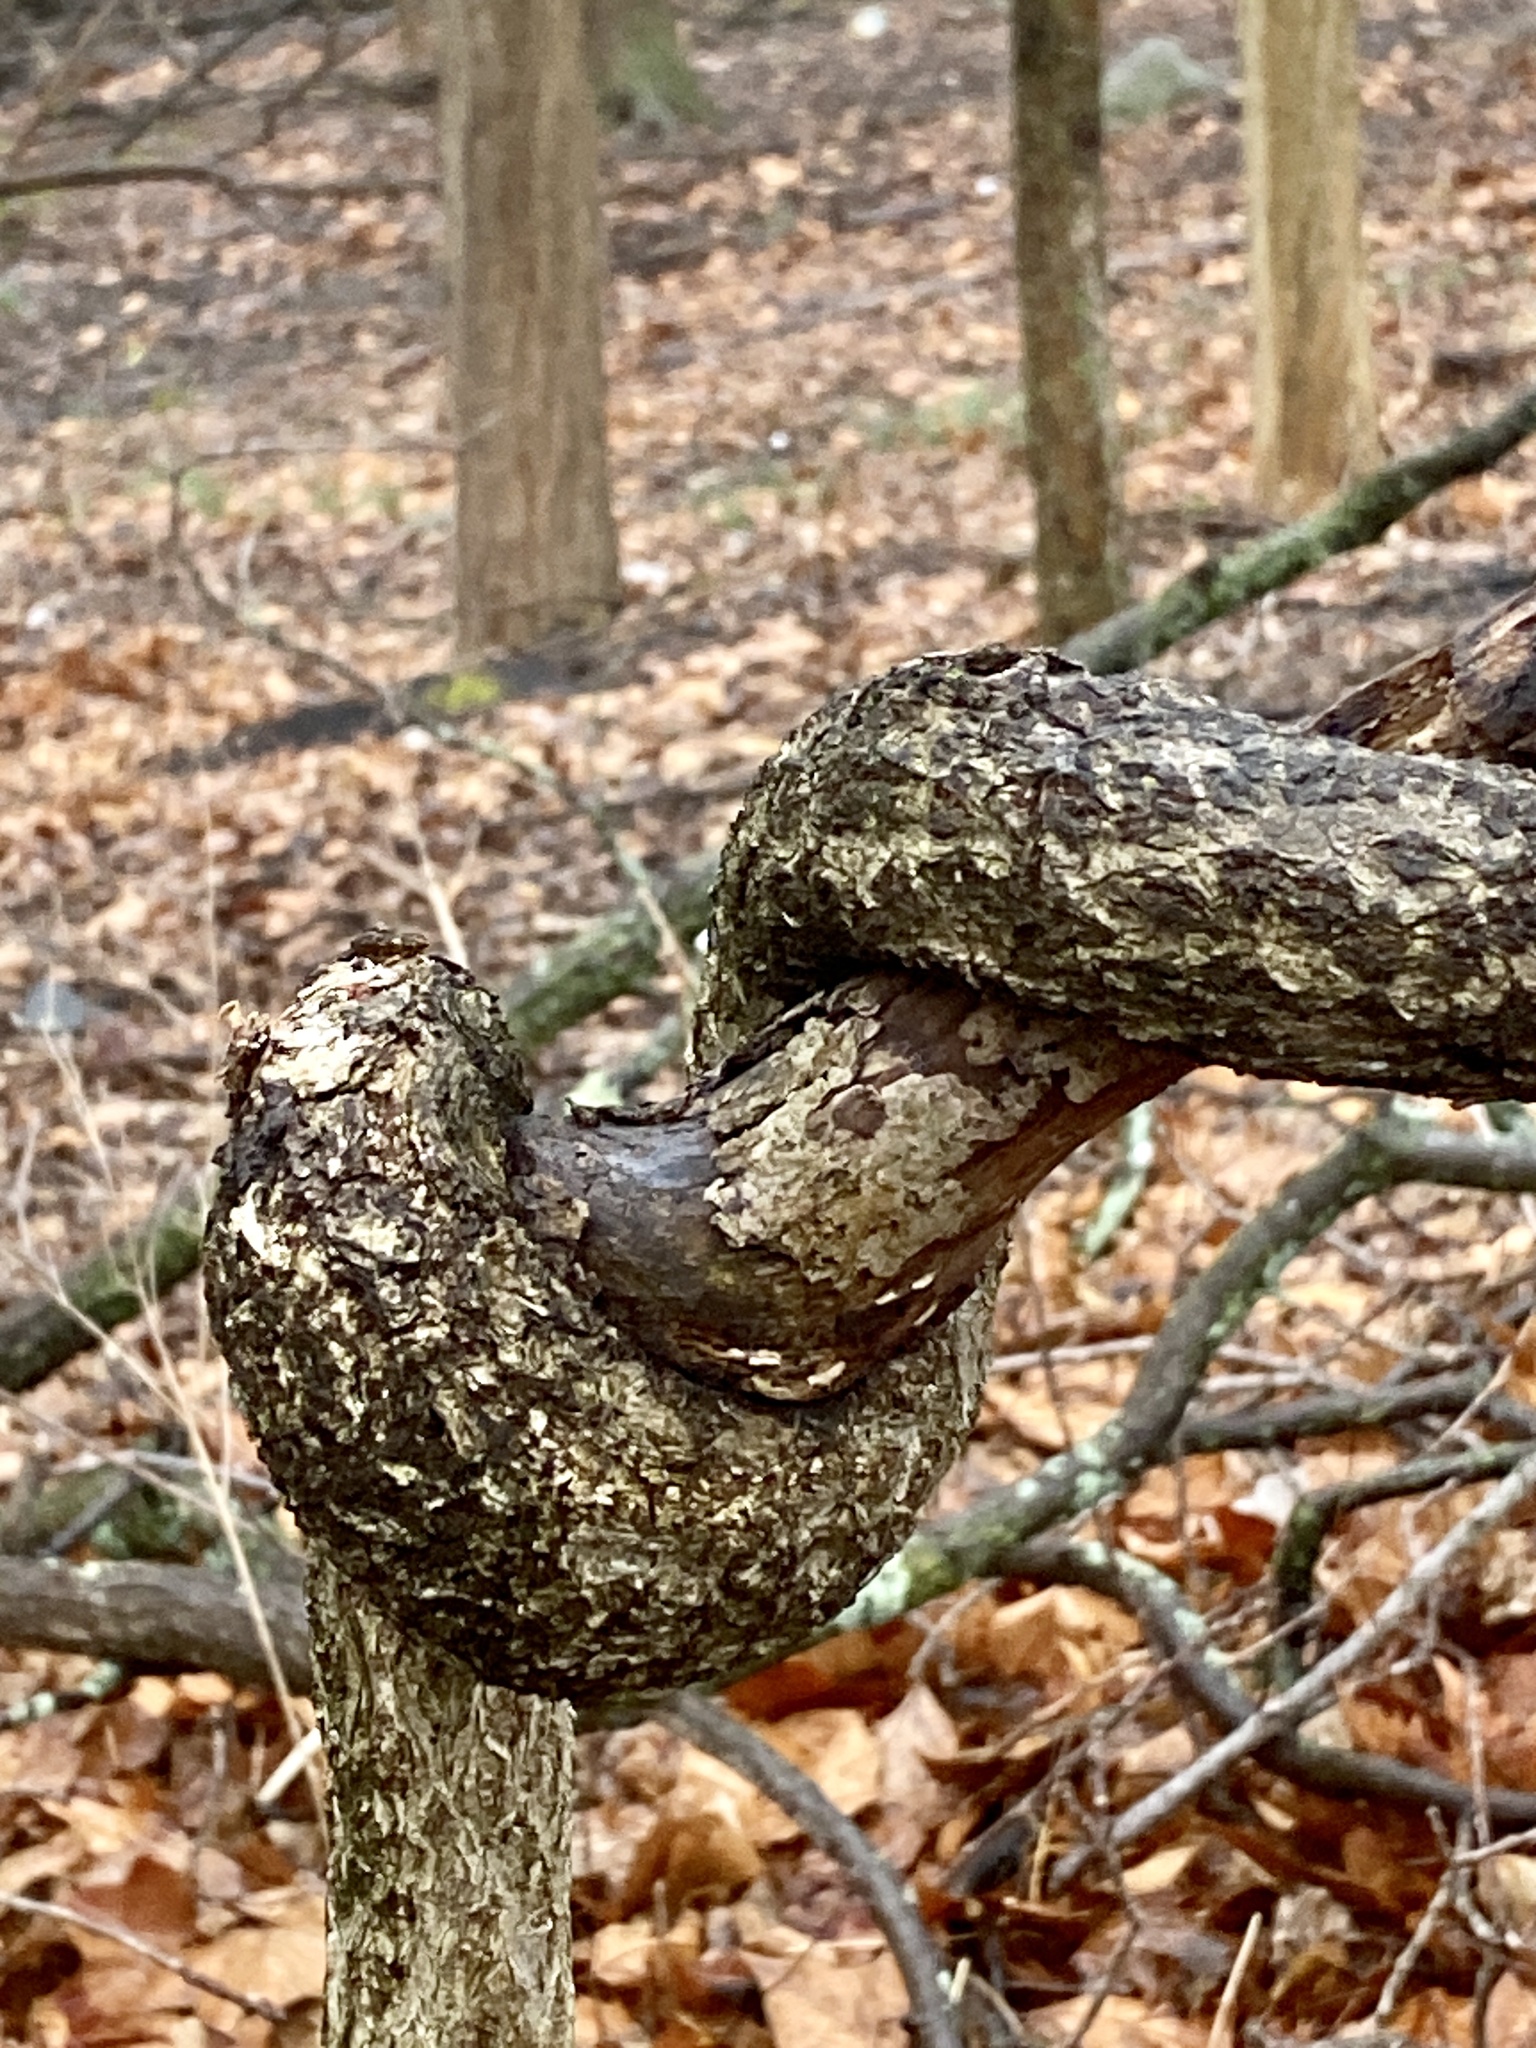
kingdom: Plantae
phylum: Tracheophyta
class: Magnoliopsida
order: Celastrales
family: Celastraceae
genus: Celastrus
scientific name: Celastrus orbiculatus
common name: Oriental bittersweet
